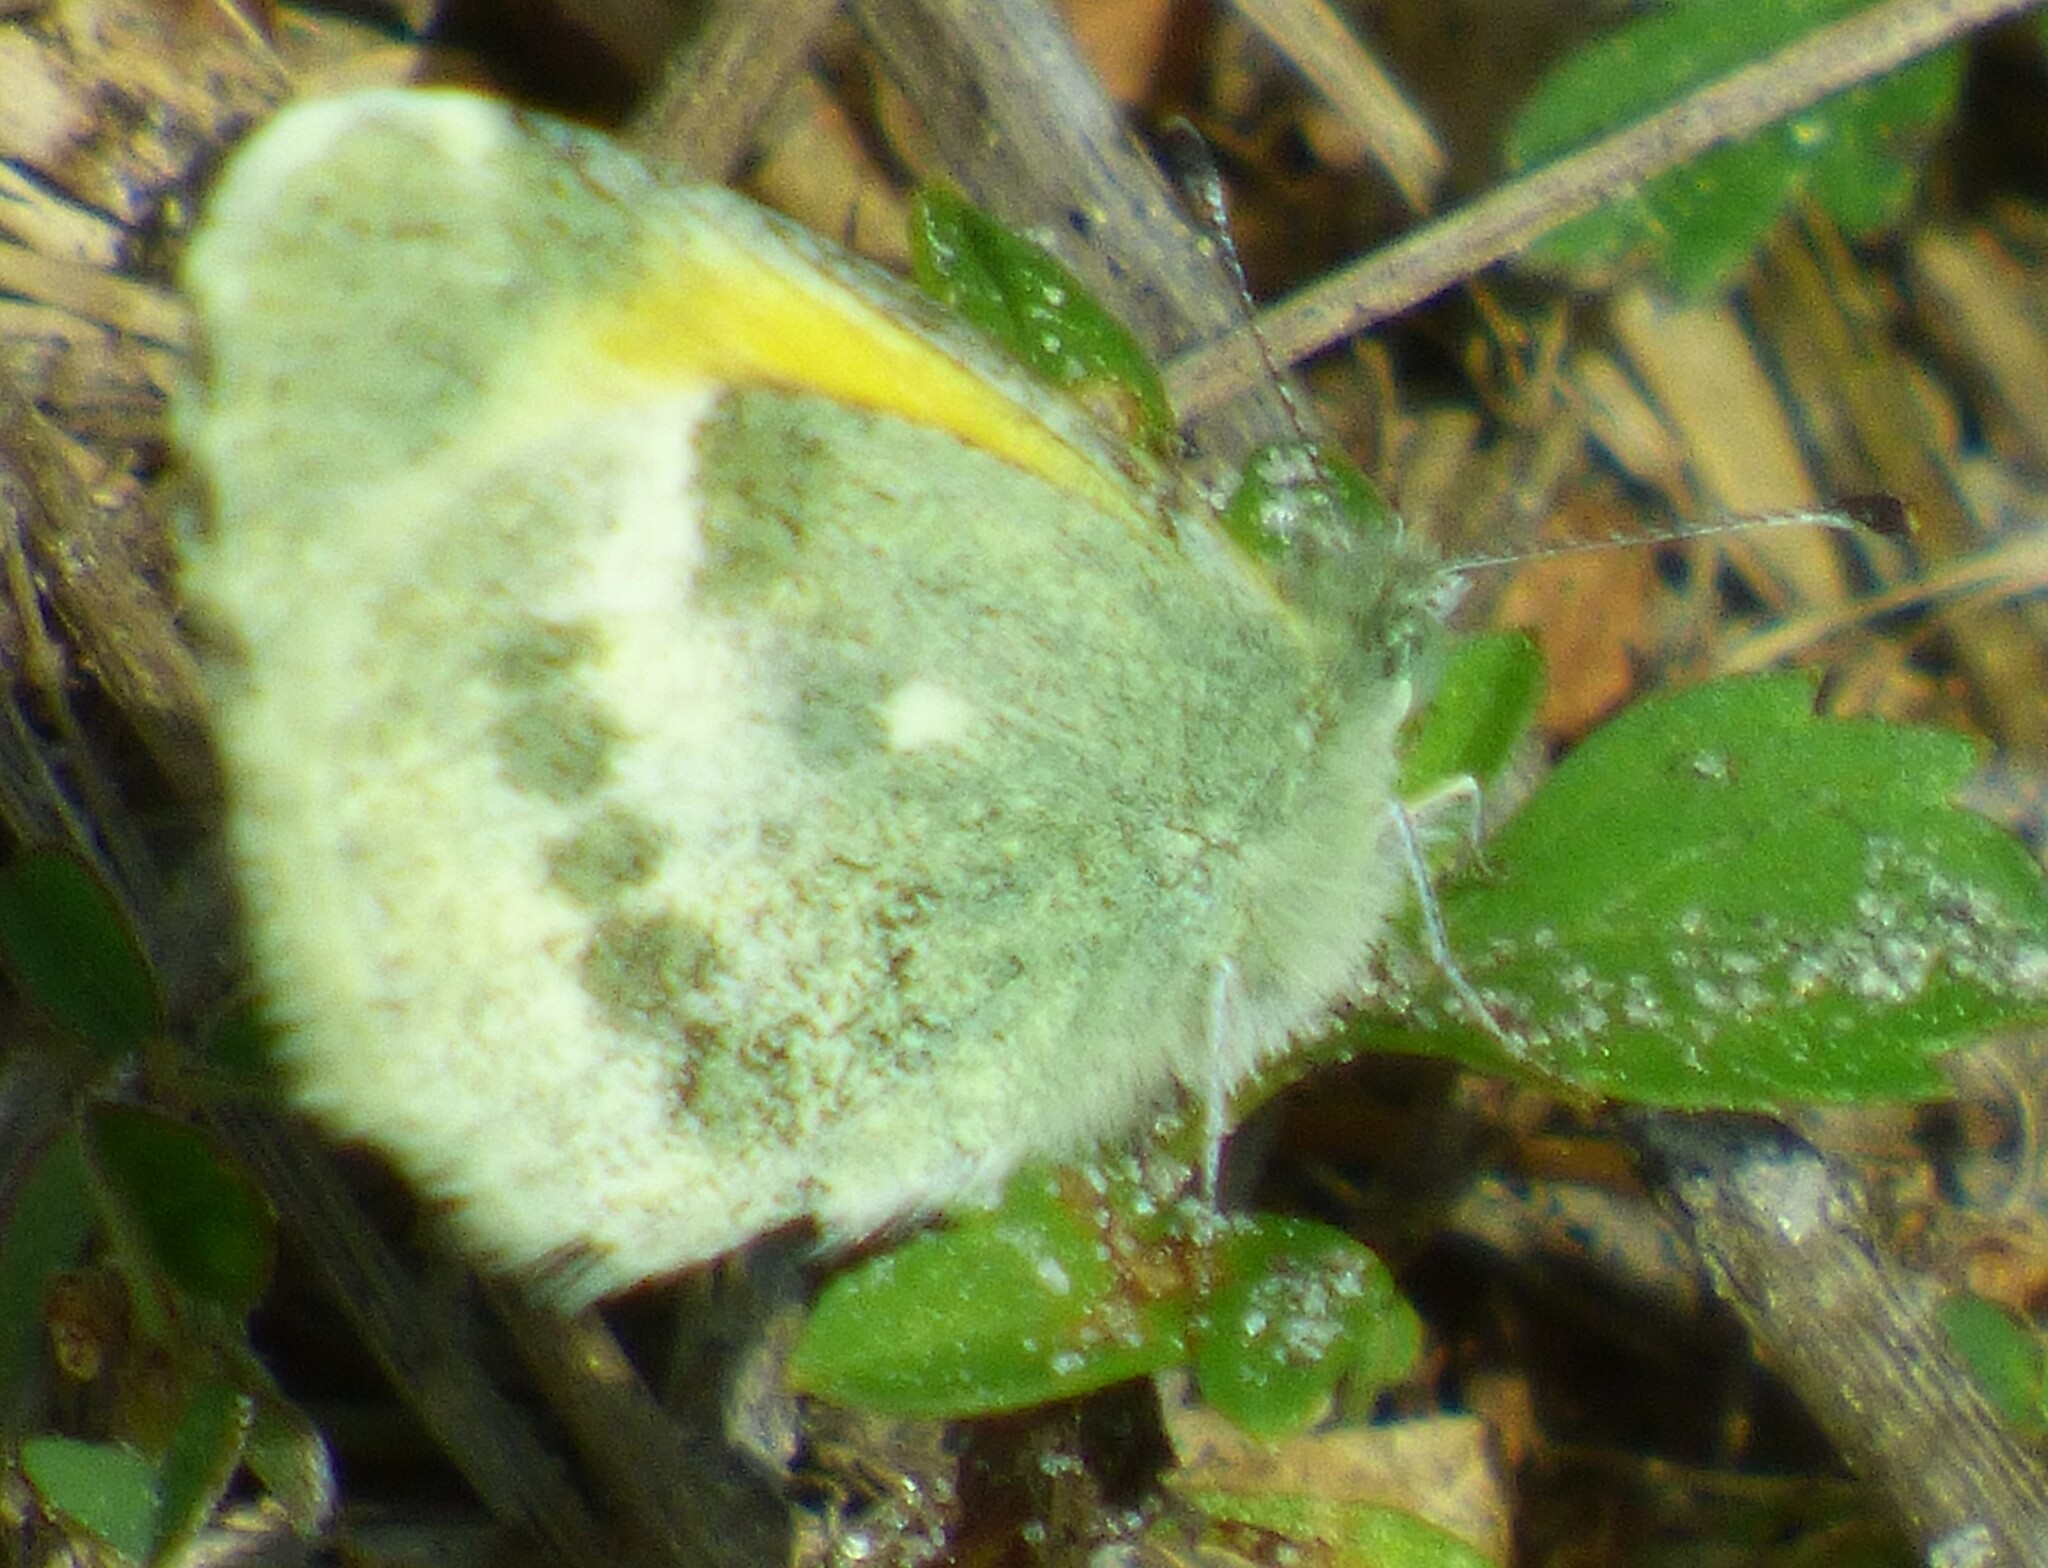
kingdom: Animalia
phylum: Arthropoda
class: Insecta
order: Lepidoptera
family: Pieridae
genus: Nathalis
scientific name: Nathalis iole
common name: Dainty sulphur
